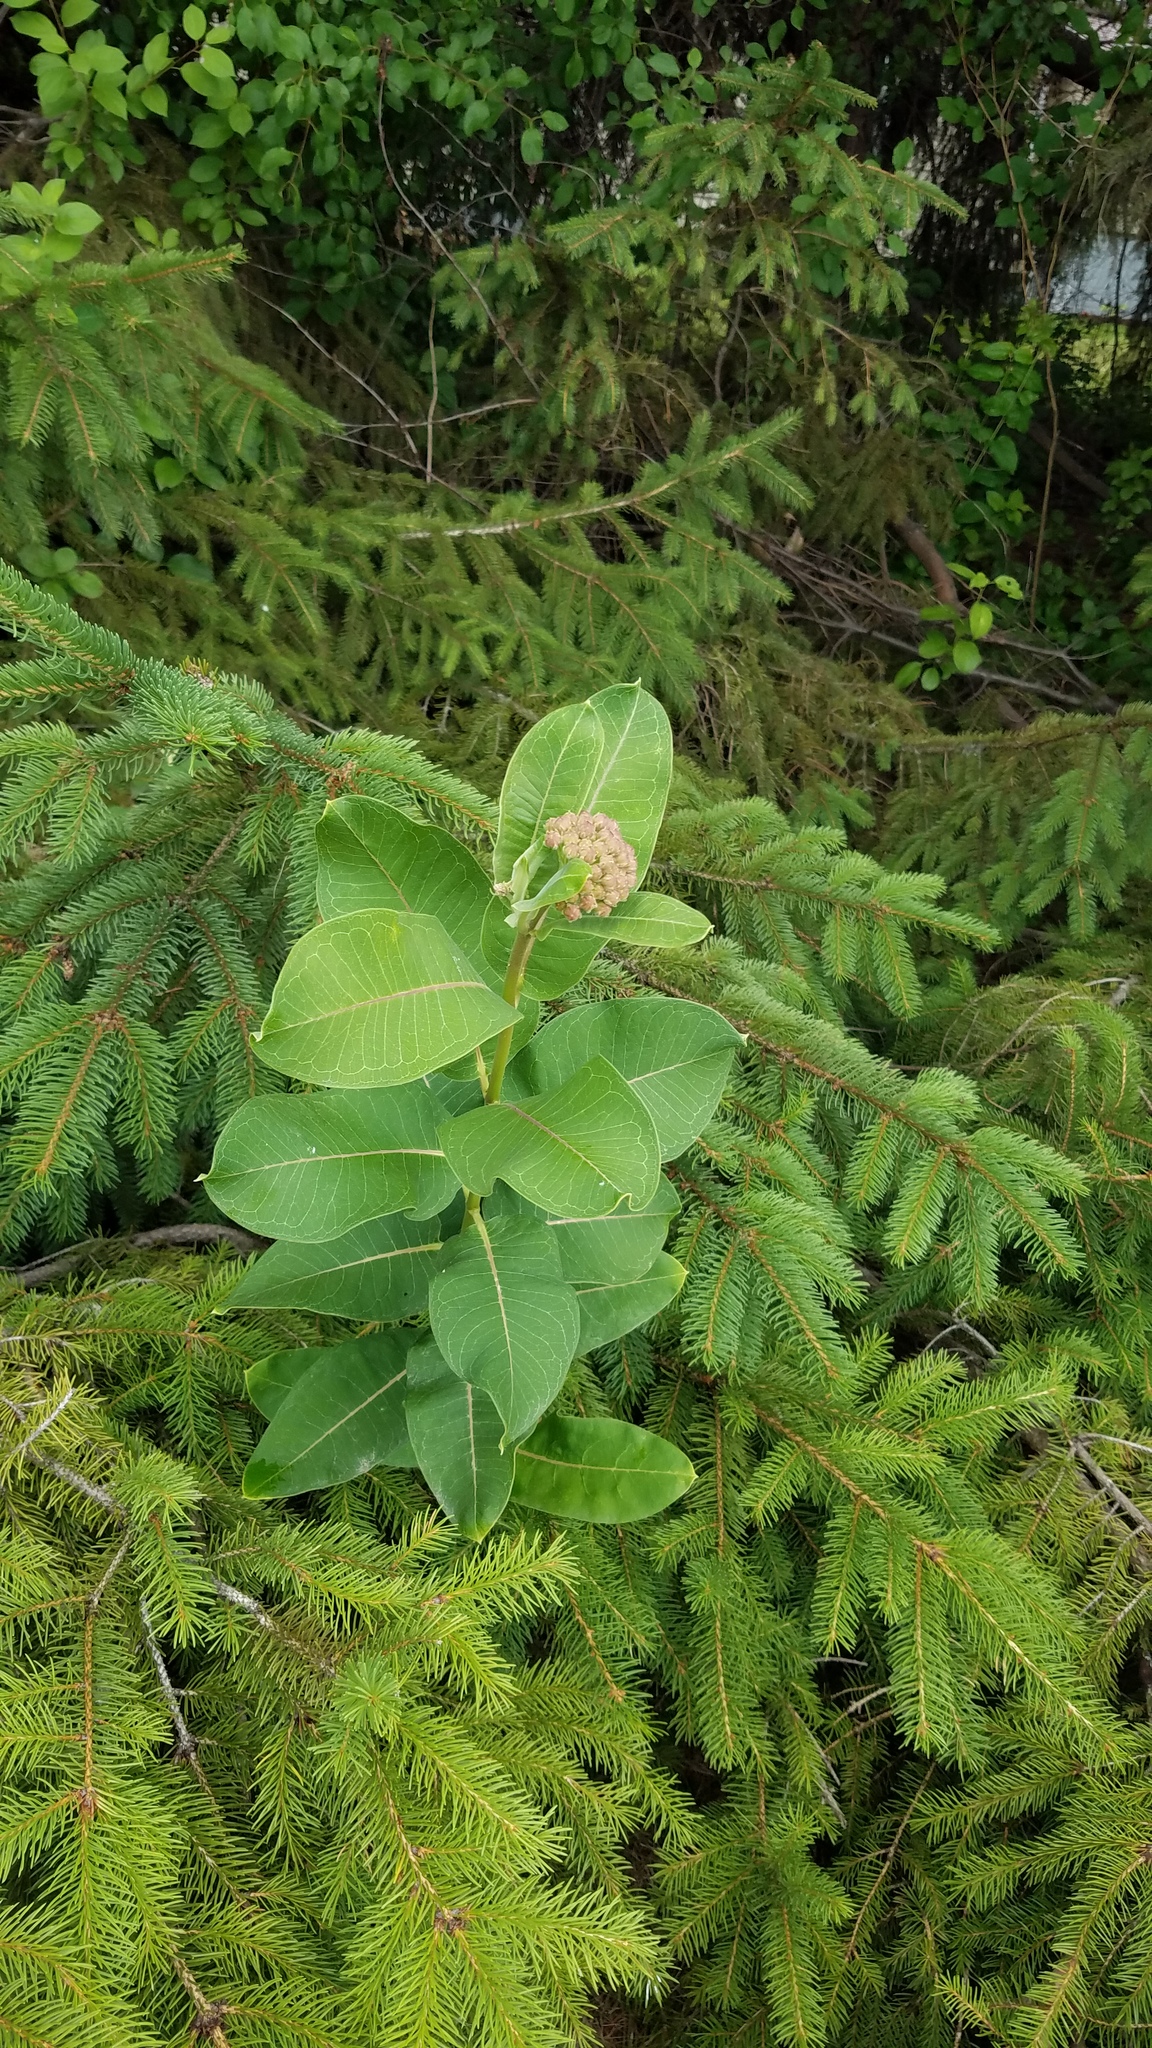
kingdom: Plantae
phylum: Tracheophyta
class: Magnoliopsida
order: Gentianales
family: Apocynaceae
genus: Asclepias
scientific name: Asclepias syriaca
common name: Common milkweed
